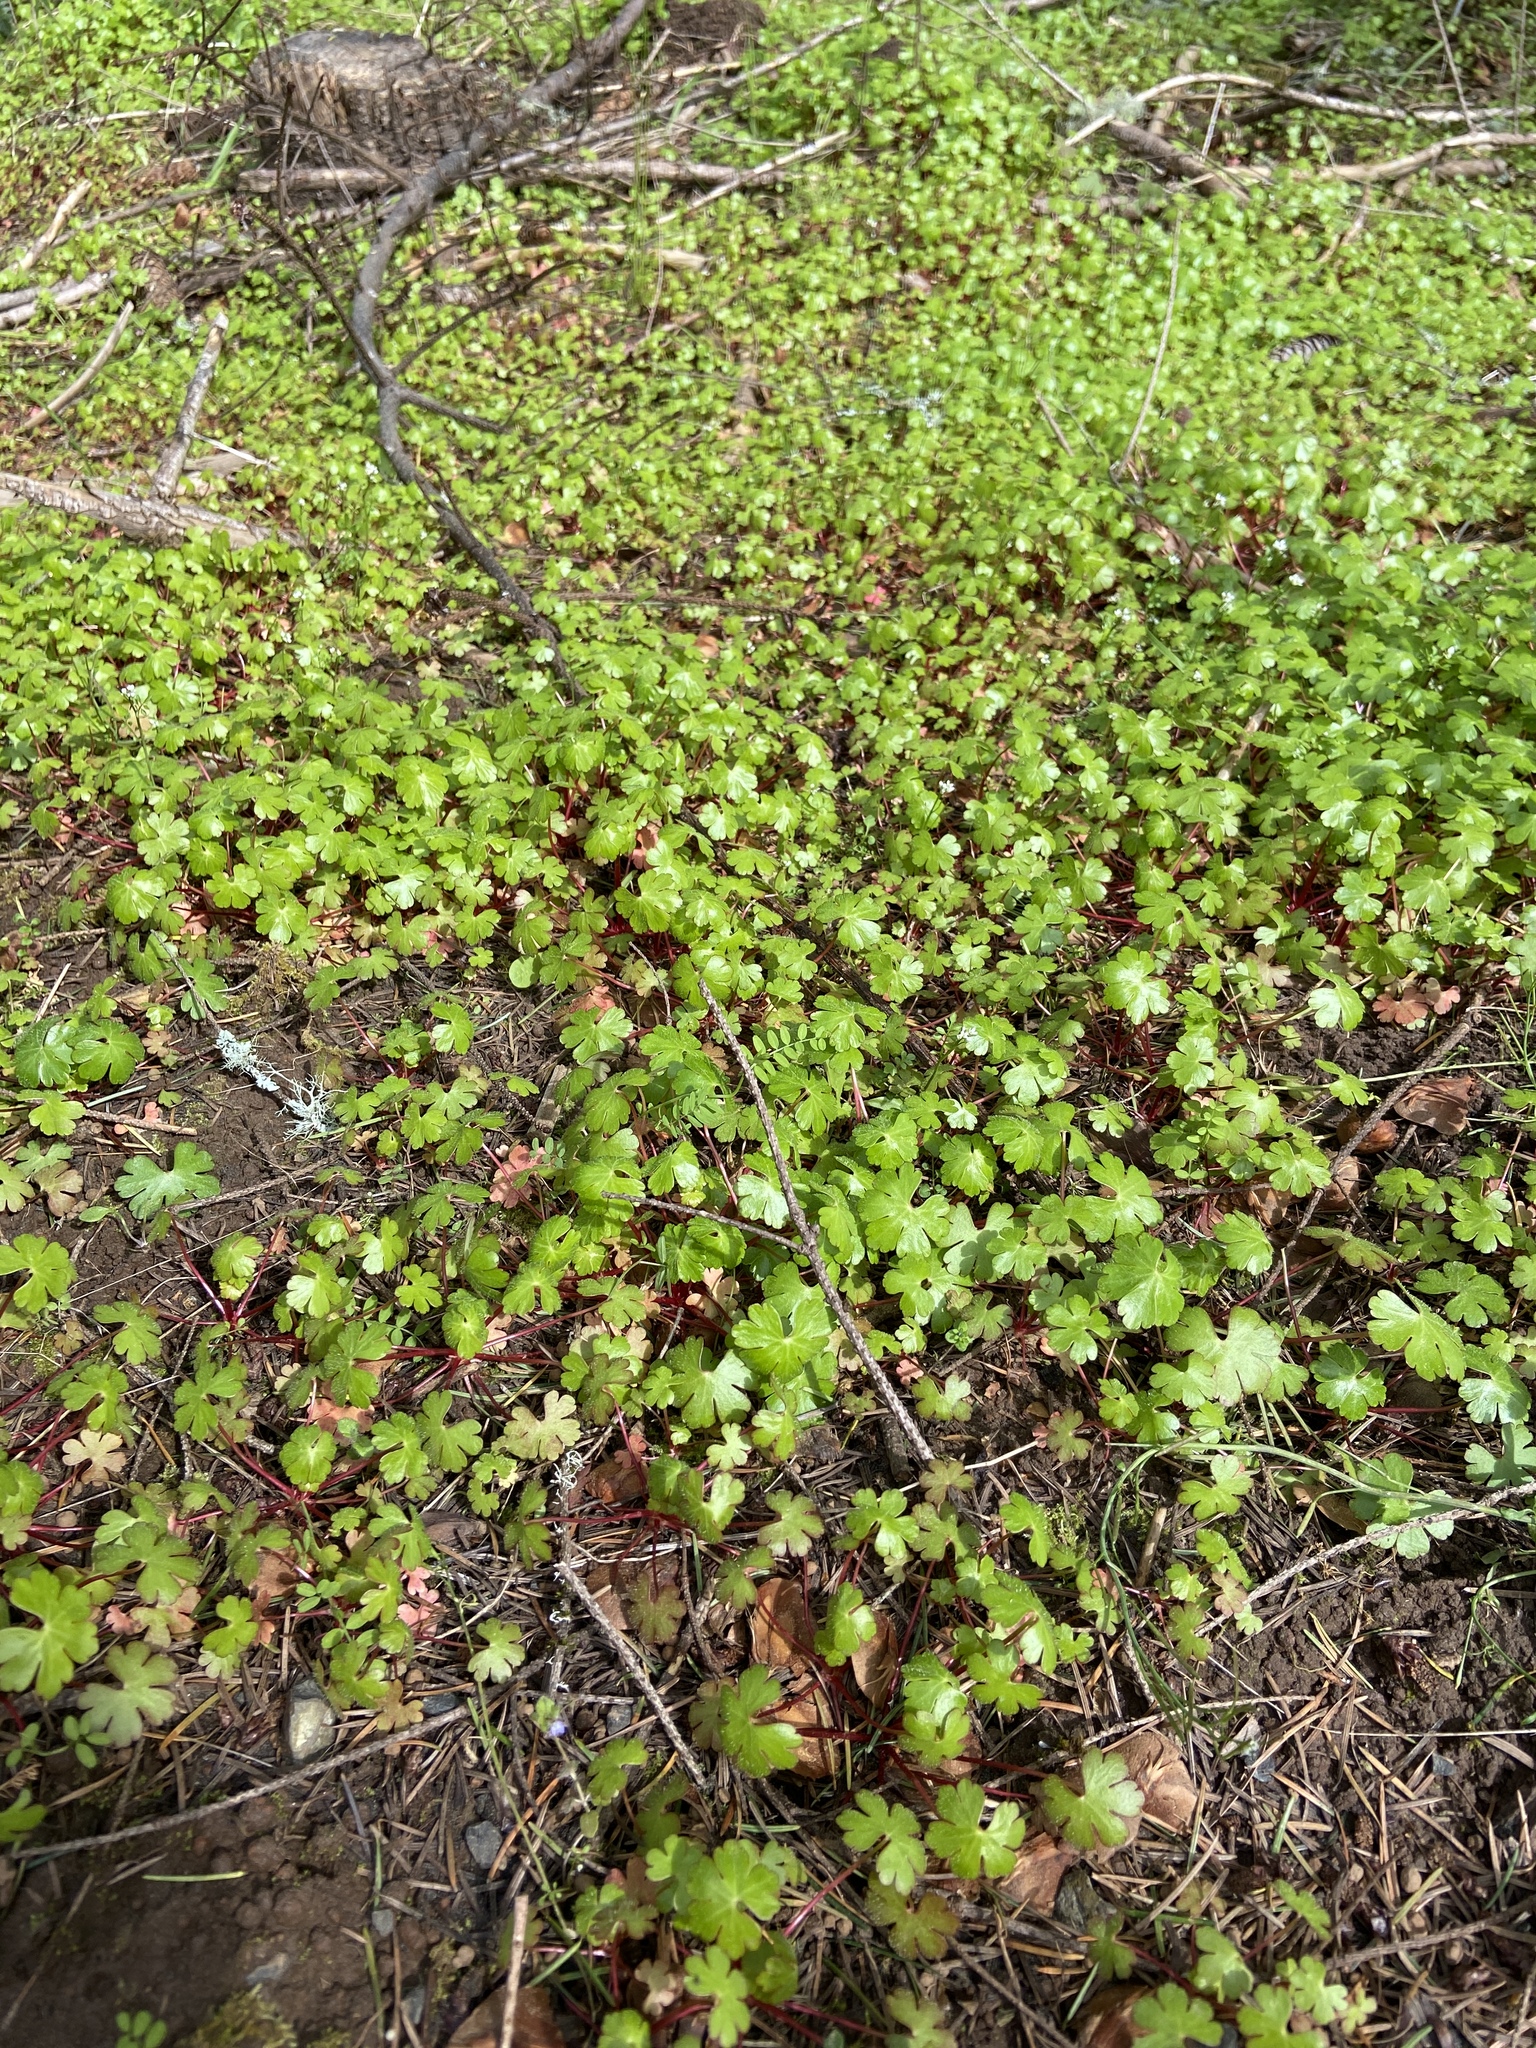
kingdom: Plantae
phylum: Tracheophyta
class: Magnoliopsida
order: Geraniales
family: Geraniaceae
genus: Geranium
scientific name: Geranium lucidum
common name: Shining crane's-bill
